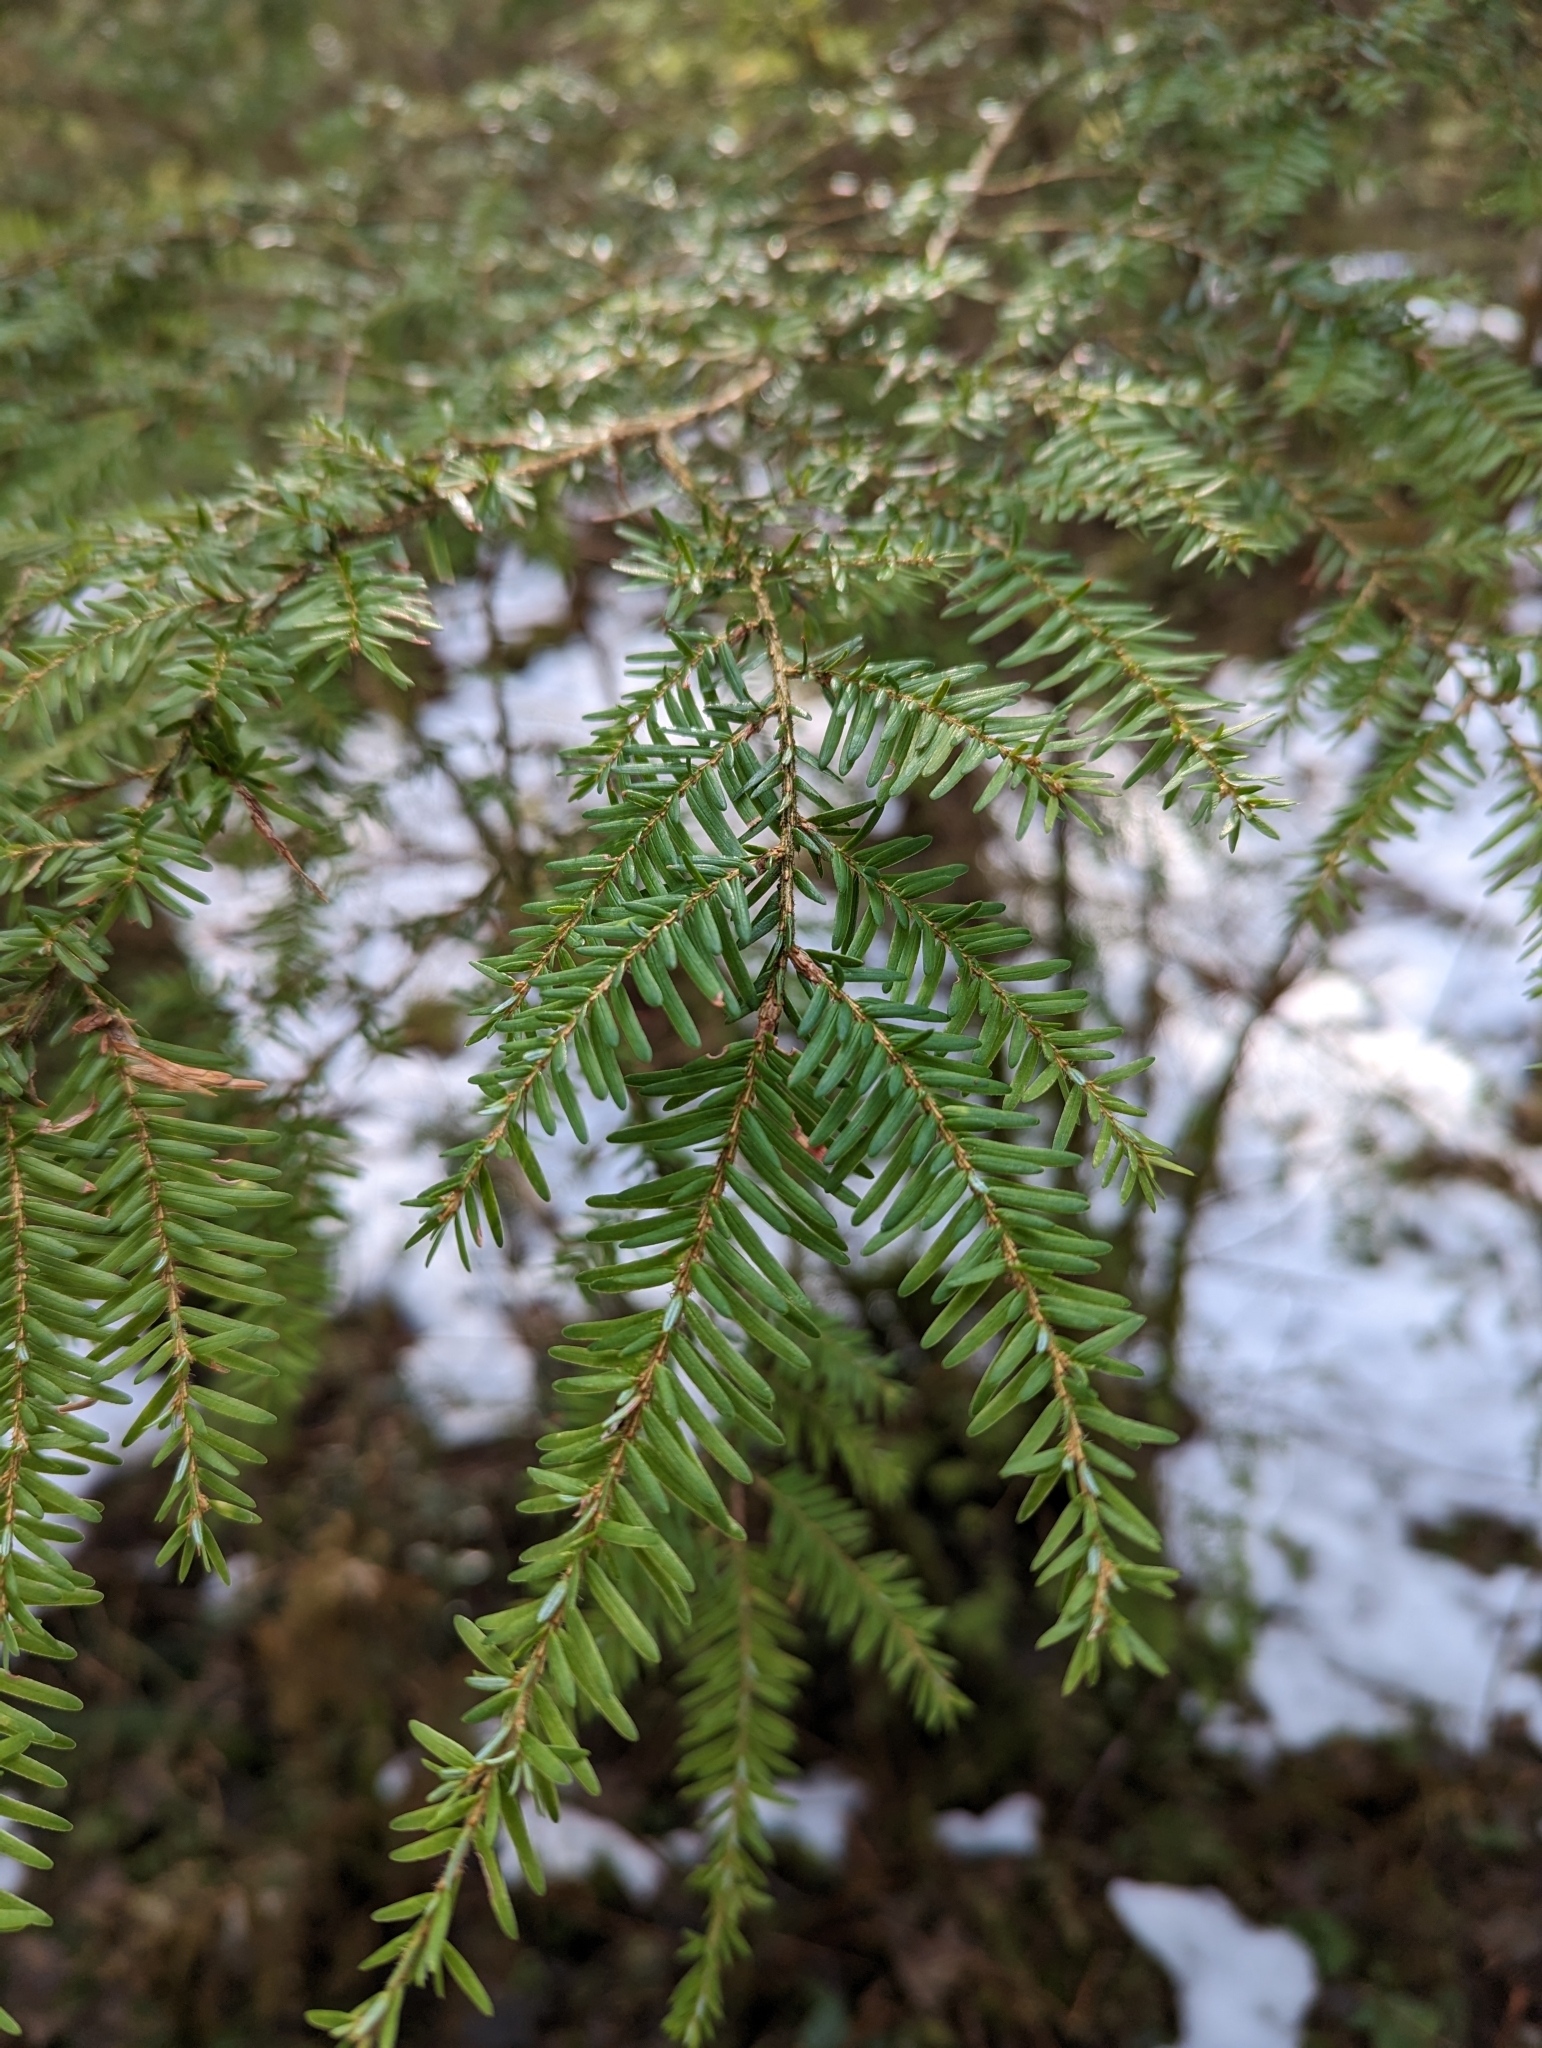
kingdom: Plantae
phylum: Tracheophyta
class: Pinopsida
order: Pinales
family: Pinaceae
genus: Tsuga
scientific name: Tsuga heterophylla
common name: Western hemlock
